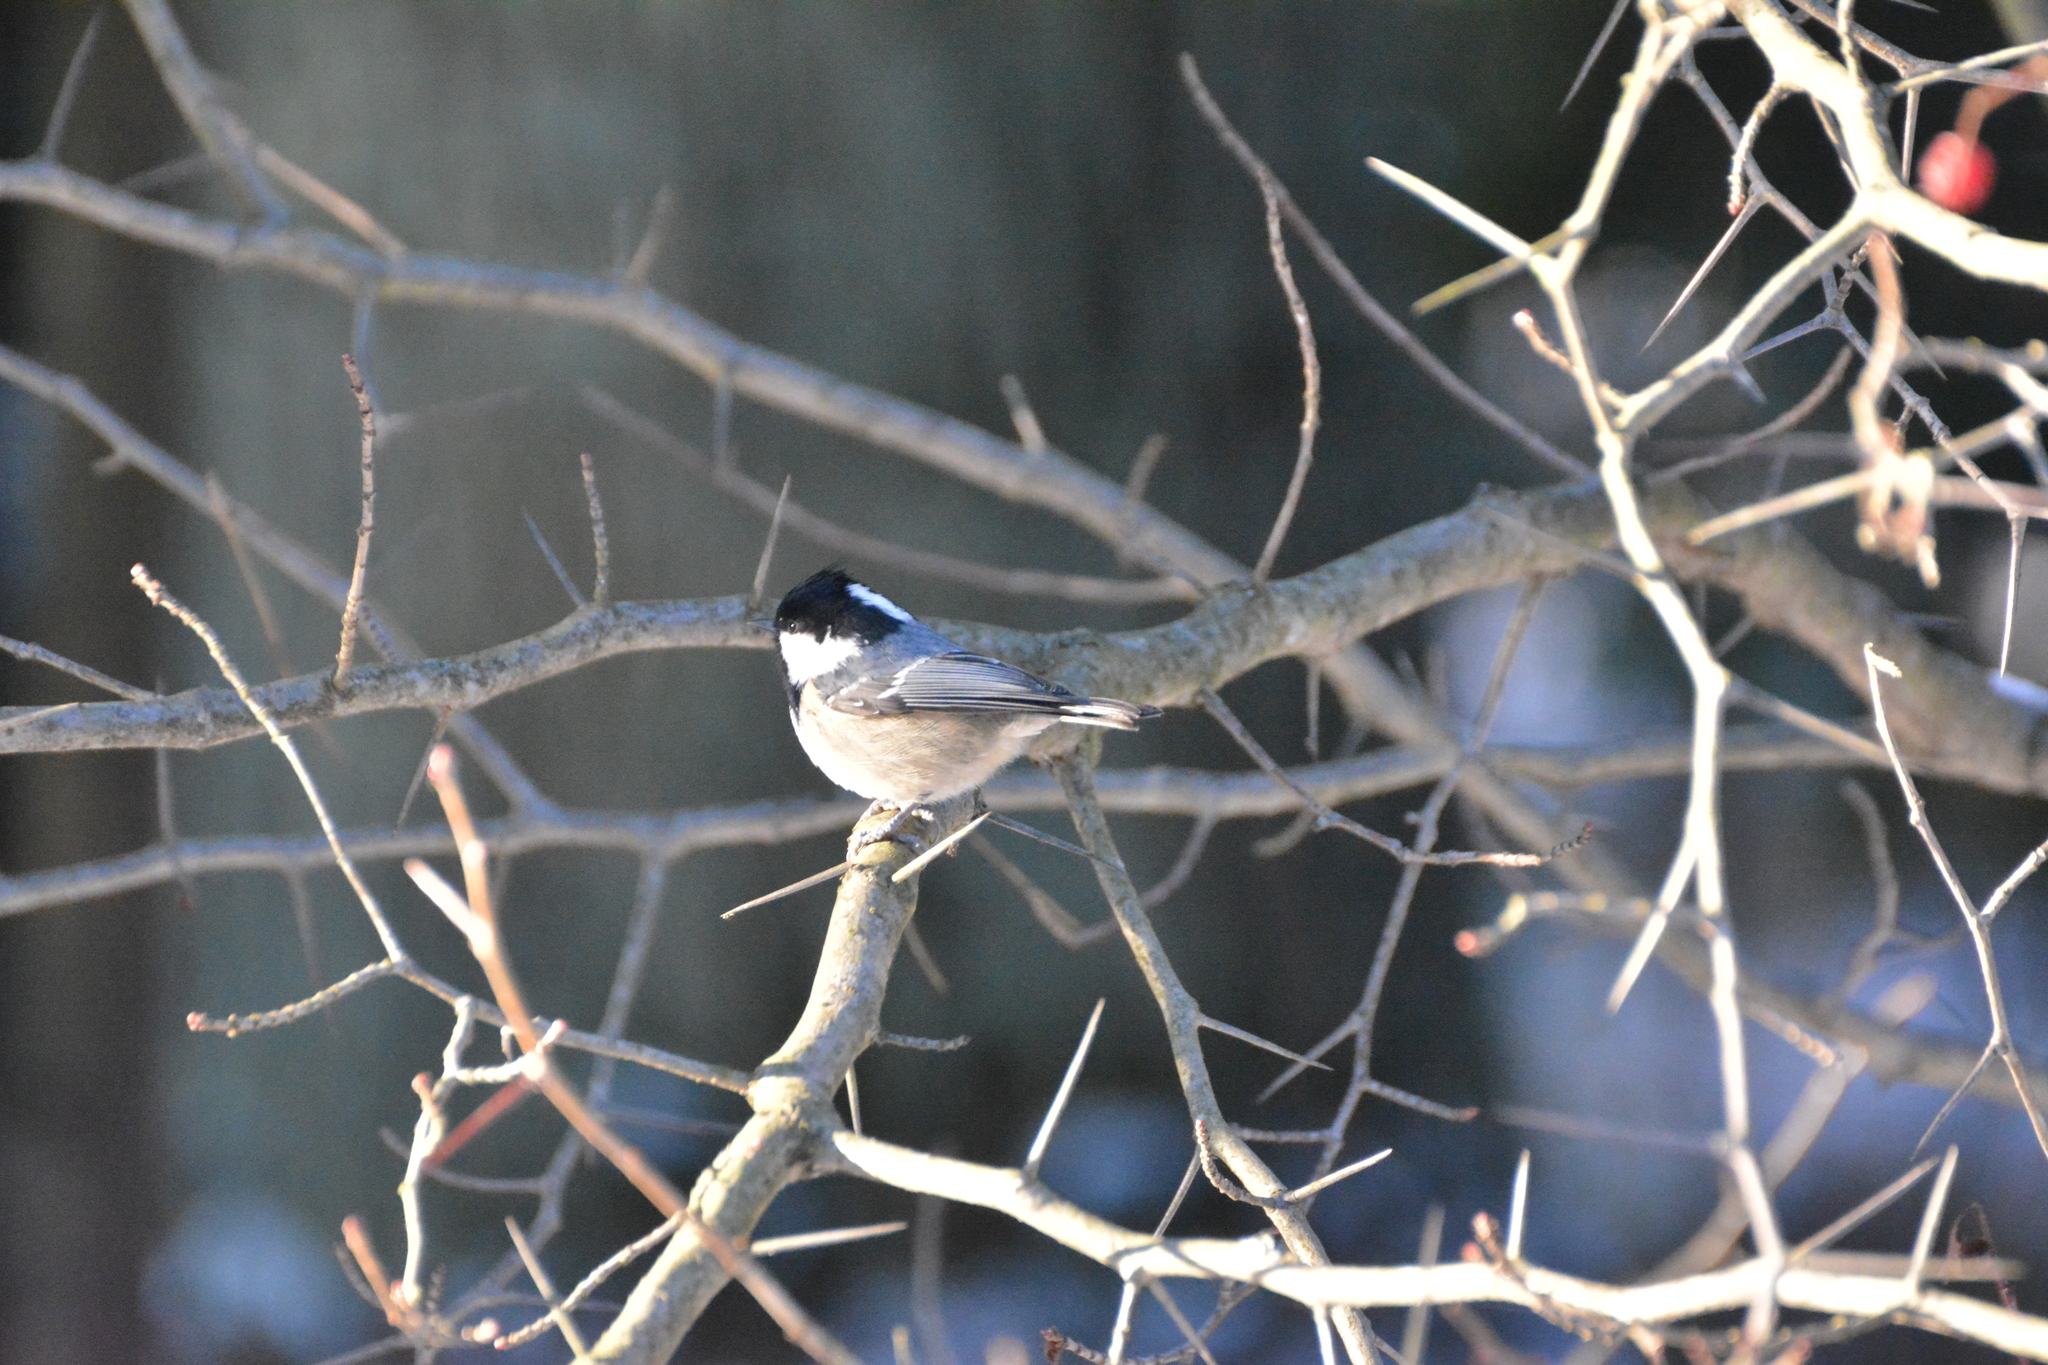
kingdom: Animalia
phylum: Chordata
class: Aves
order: Passeriformes
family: Paridae
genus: Periparus
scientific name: Periparus ater
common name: Coal tit
